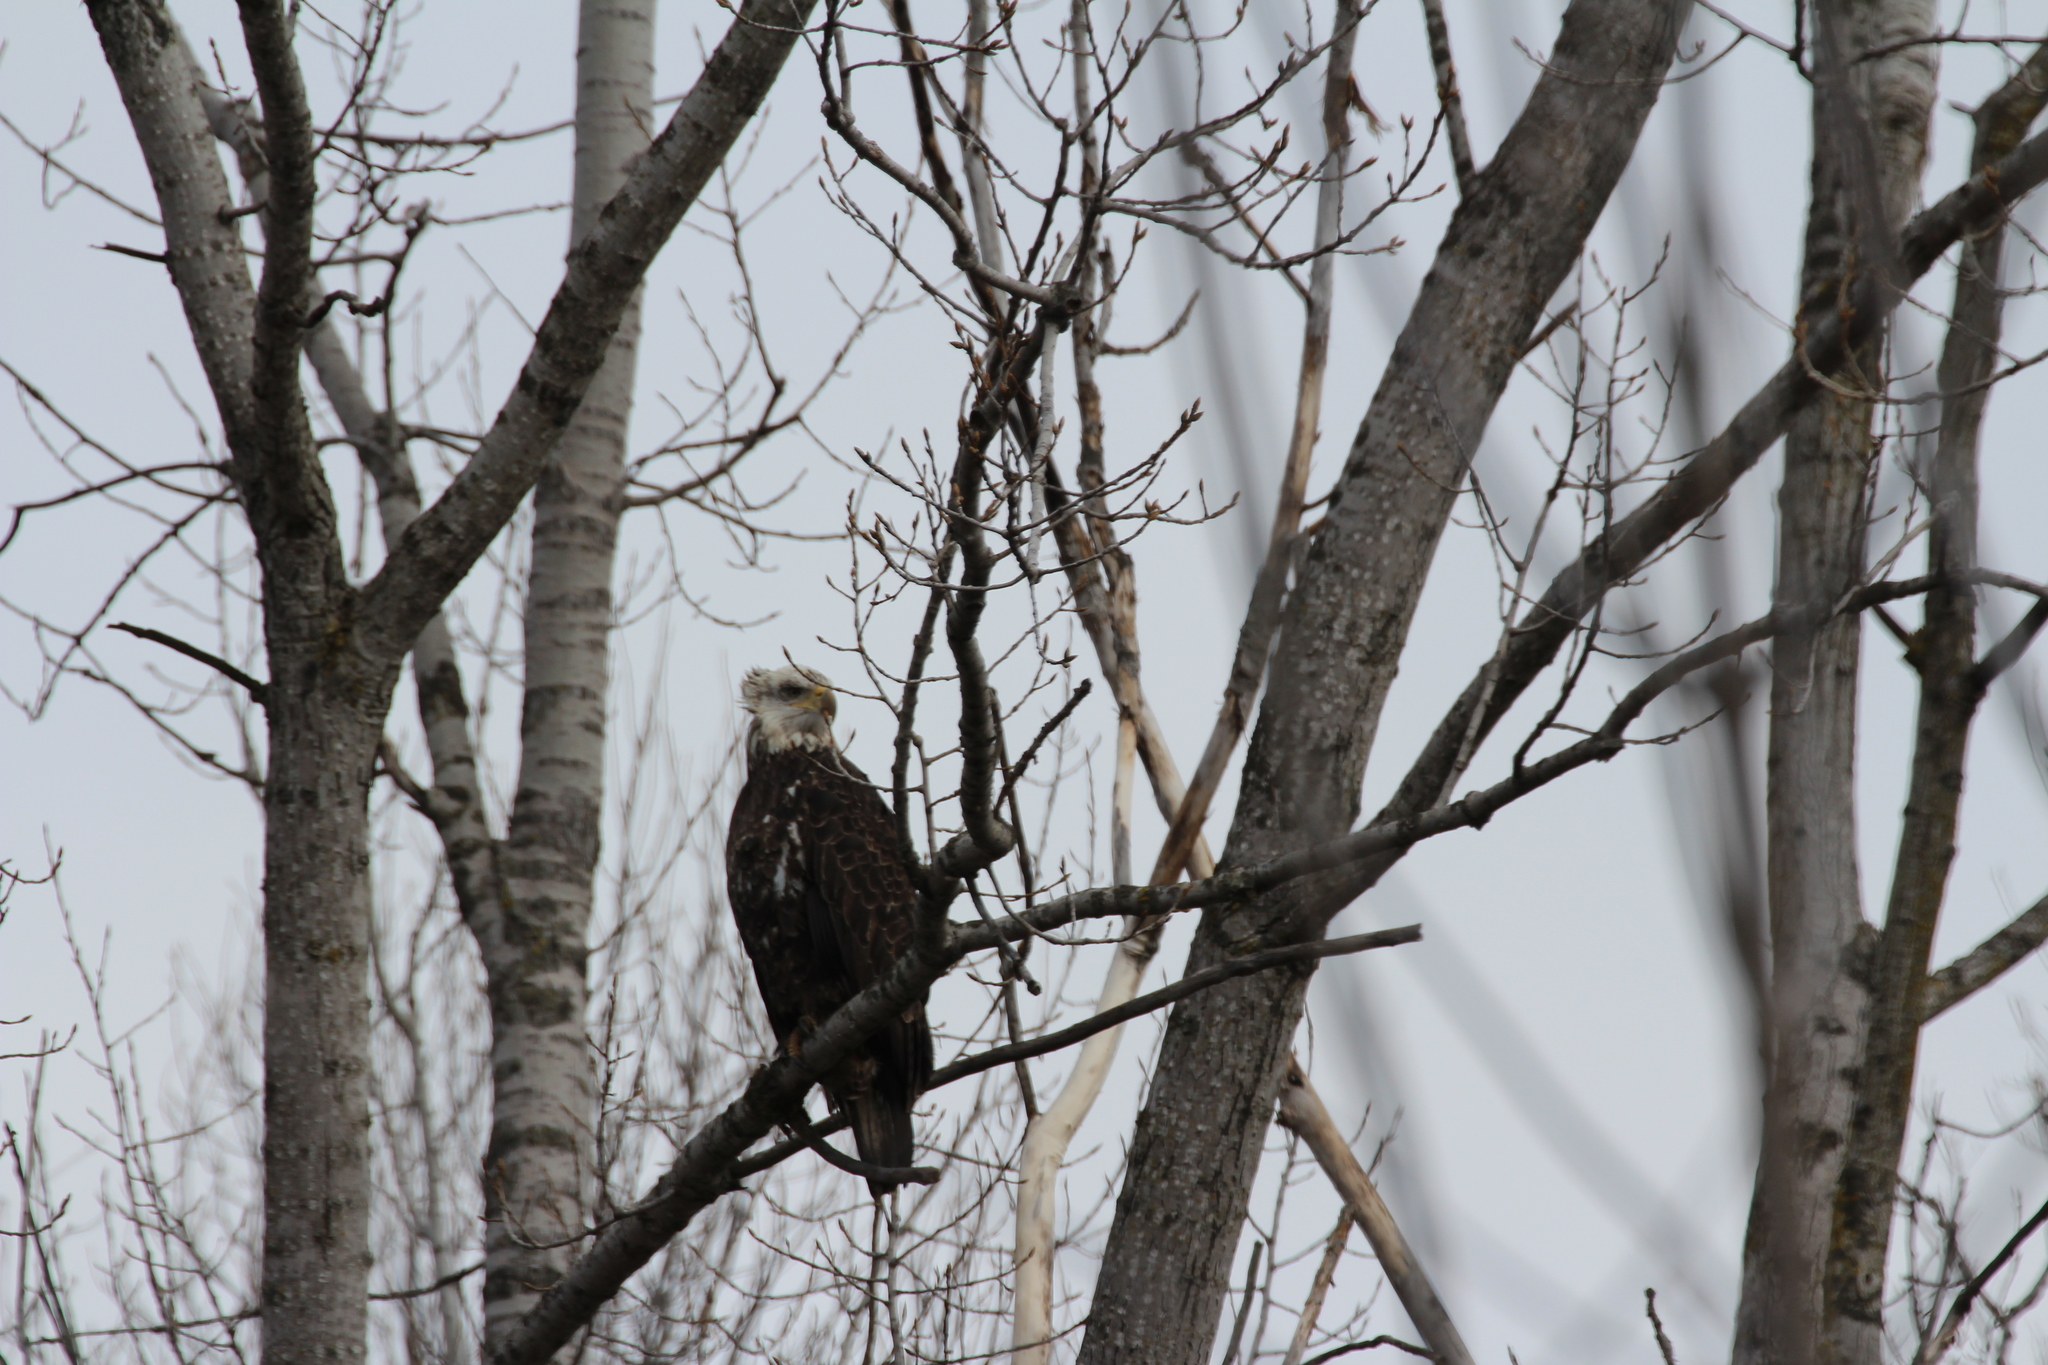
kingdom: Animalia
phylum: Chordata
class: Aves
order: Accipitriformes
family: Accipitridae
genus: Haliaeetus
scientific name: Haliaeetus leucocephalus
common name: Bald eagle
